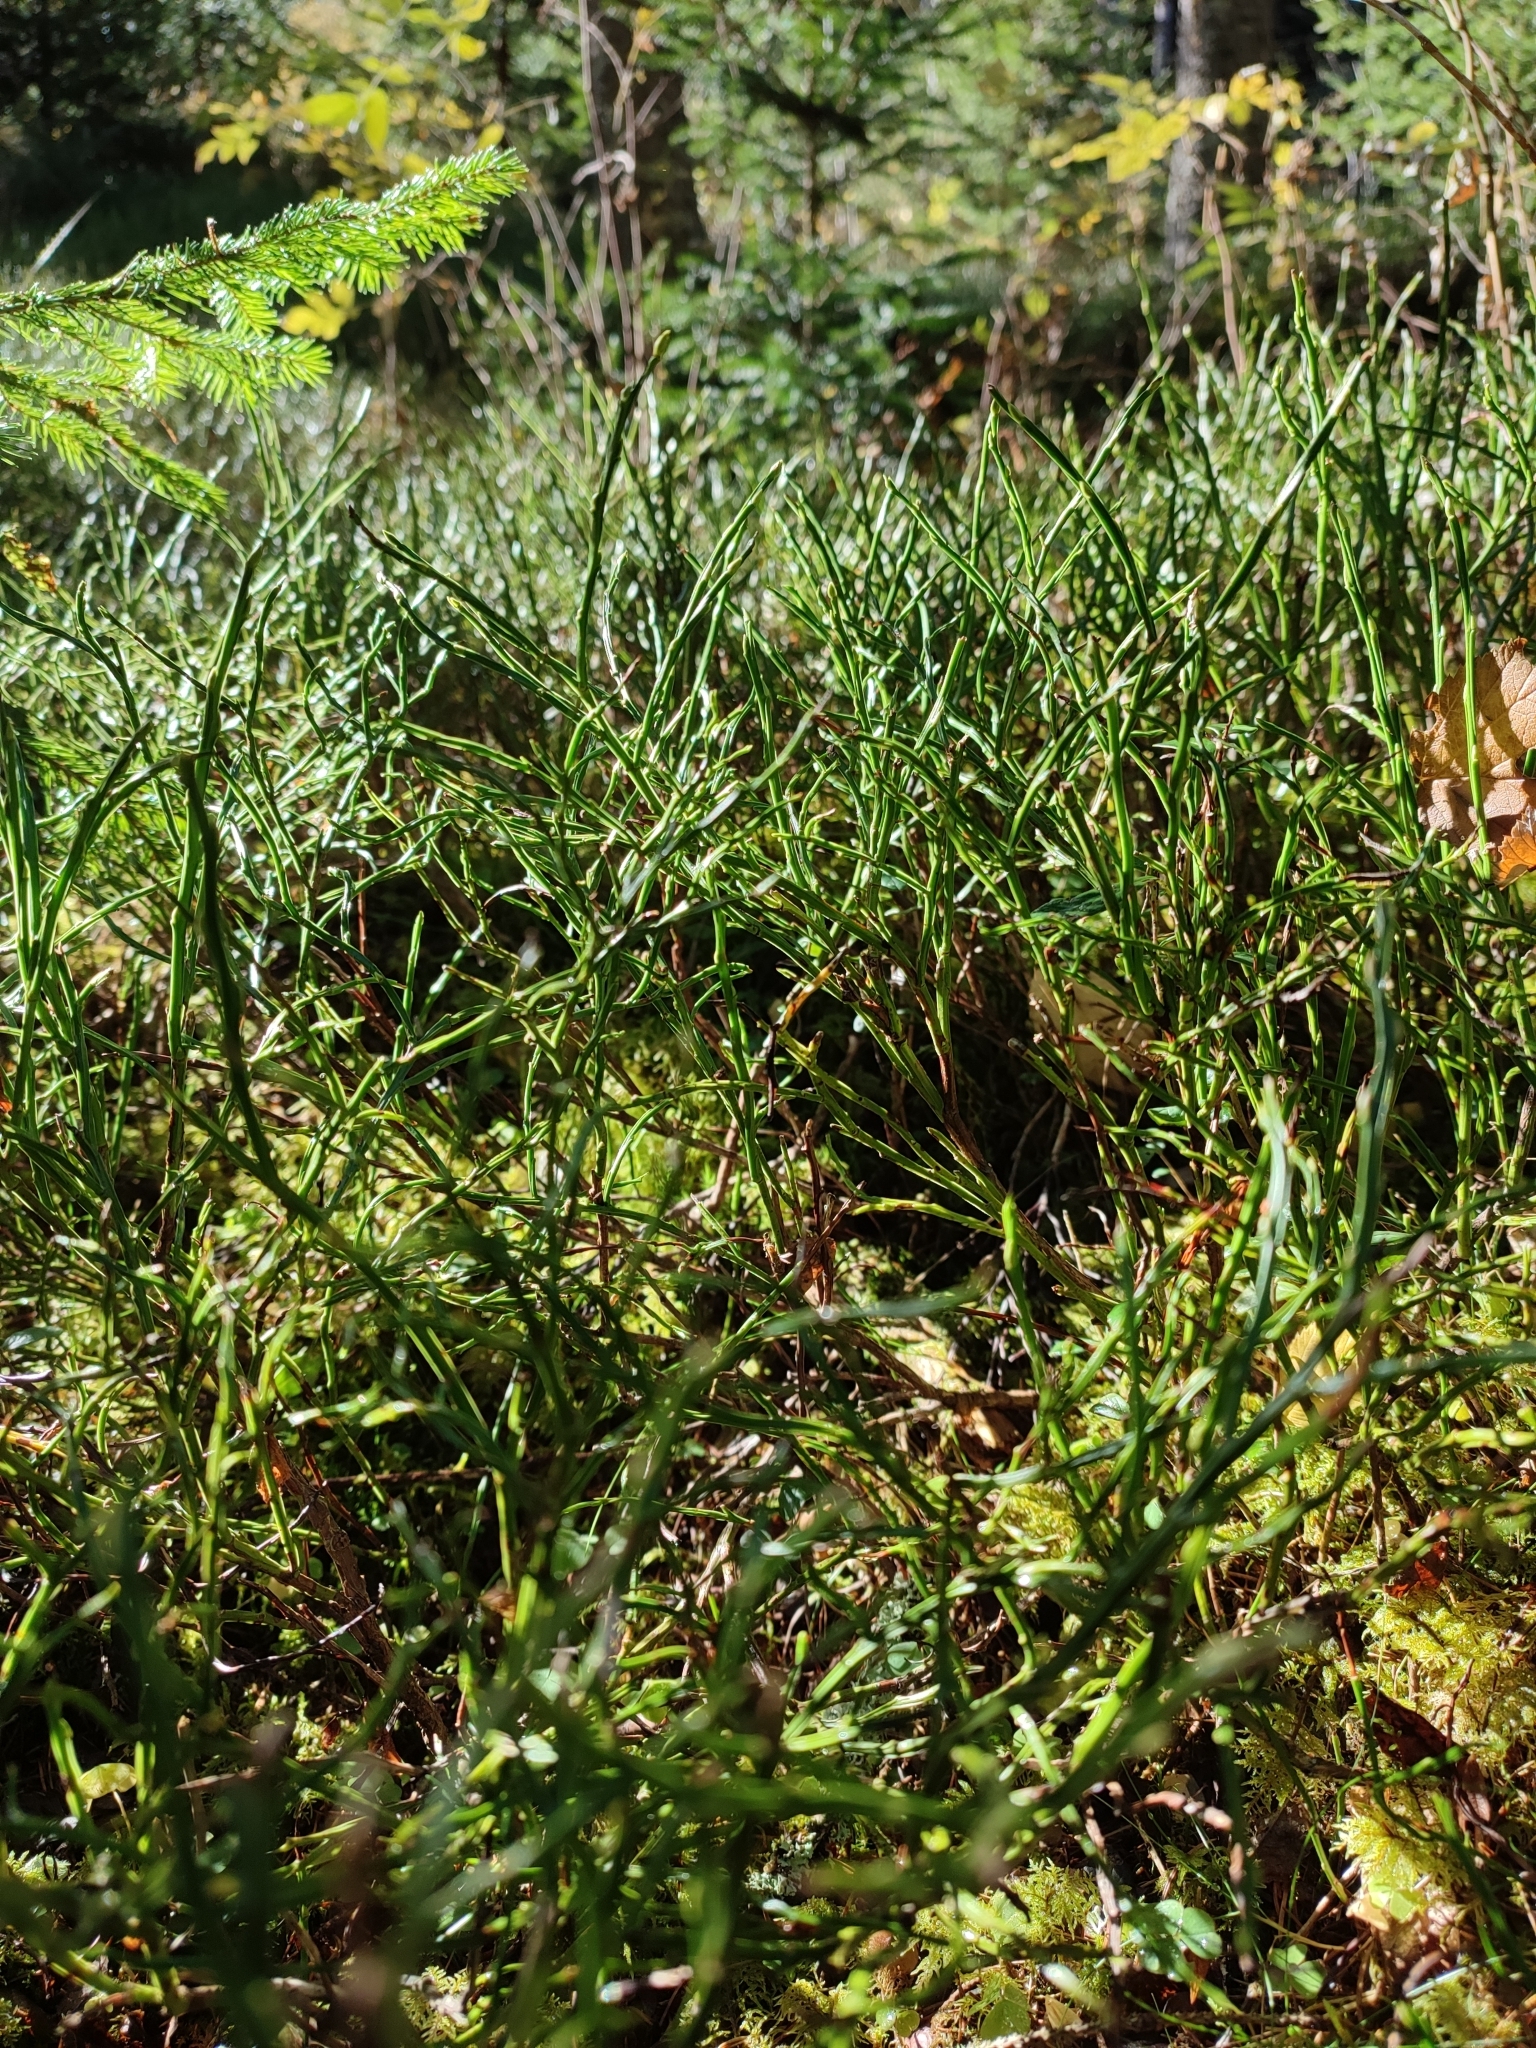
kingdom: Plantae
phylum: Tracheophyta
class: Magnoliopsida
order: Ericales
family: Ericaceae
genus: Vaccinium
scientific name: Vaccinium myrtillus
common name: Bilberry
